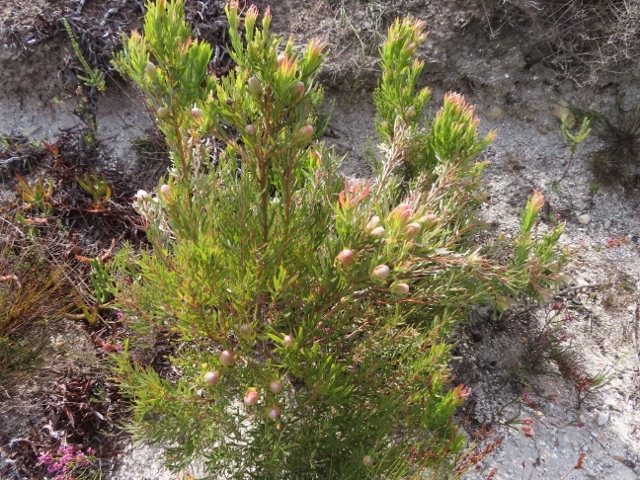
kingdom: Plantae
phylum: Tracheophyta
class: Magnoliopsida
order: Proteales
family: Proteaceae
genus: Leucadendron
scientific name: Leucadendron xanthoconus
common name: Sickle-leaf conebush
